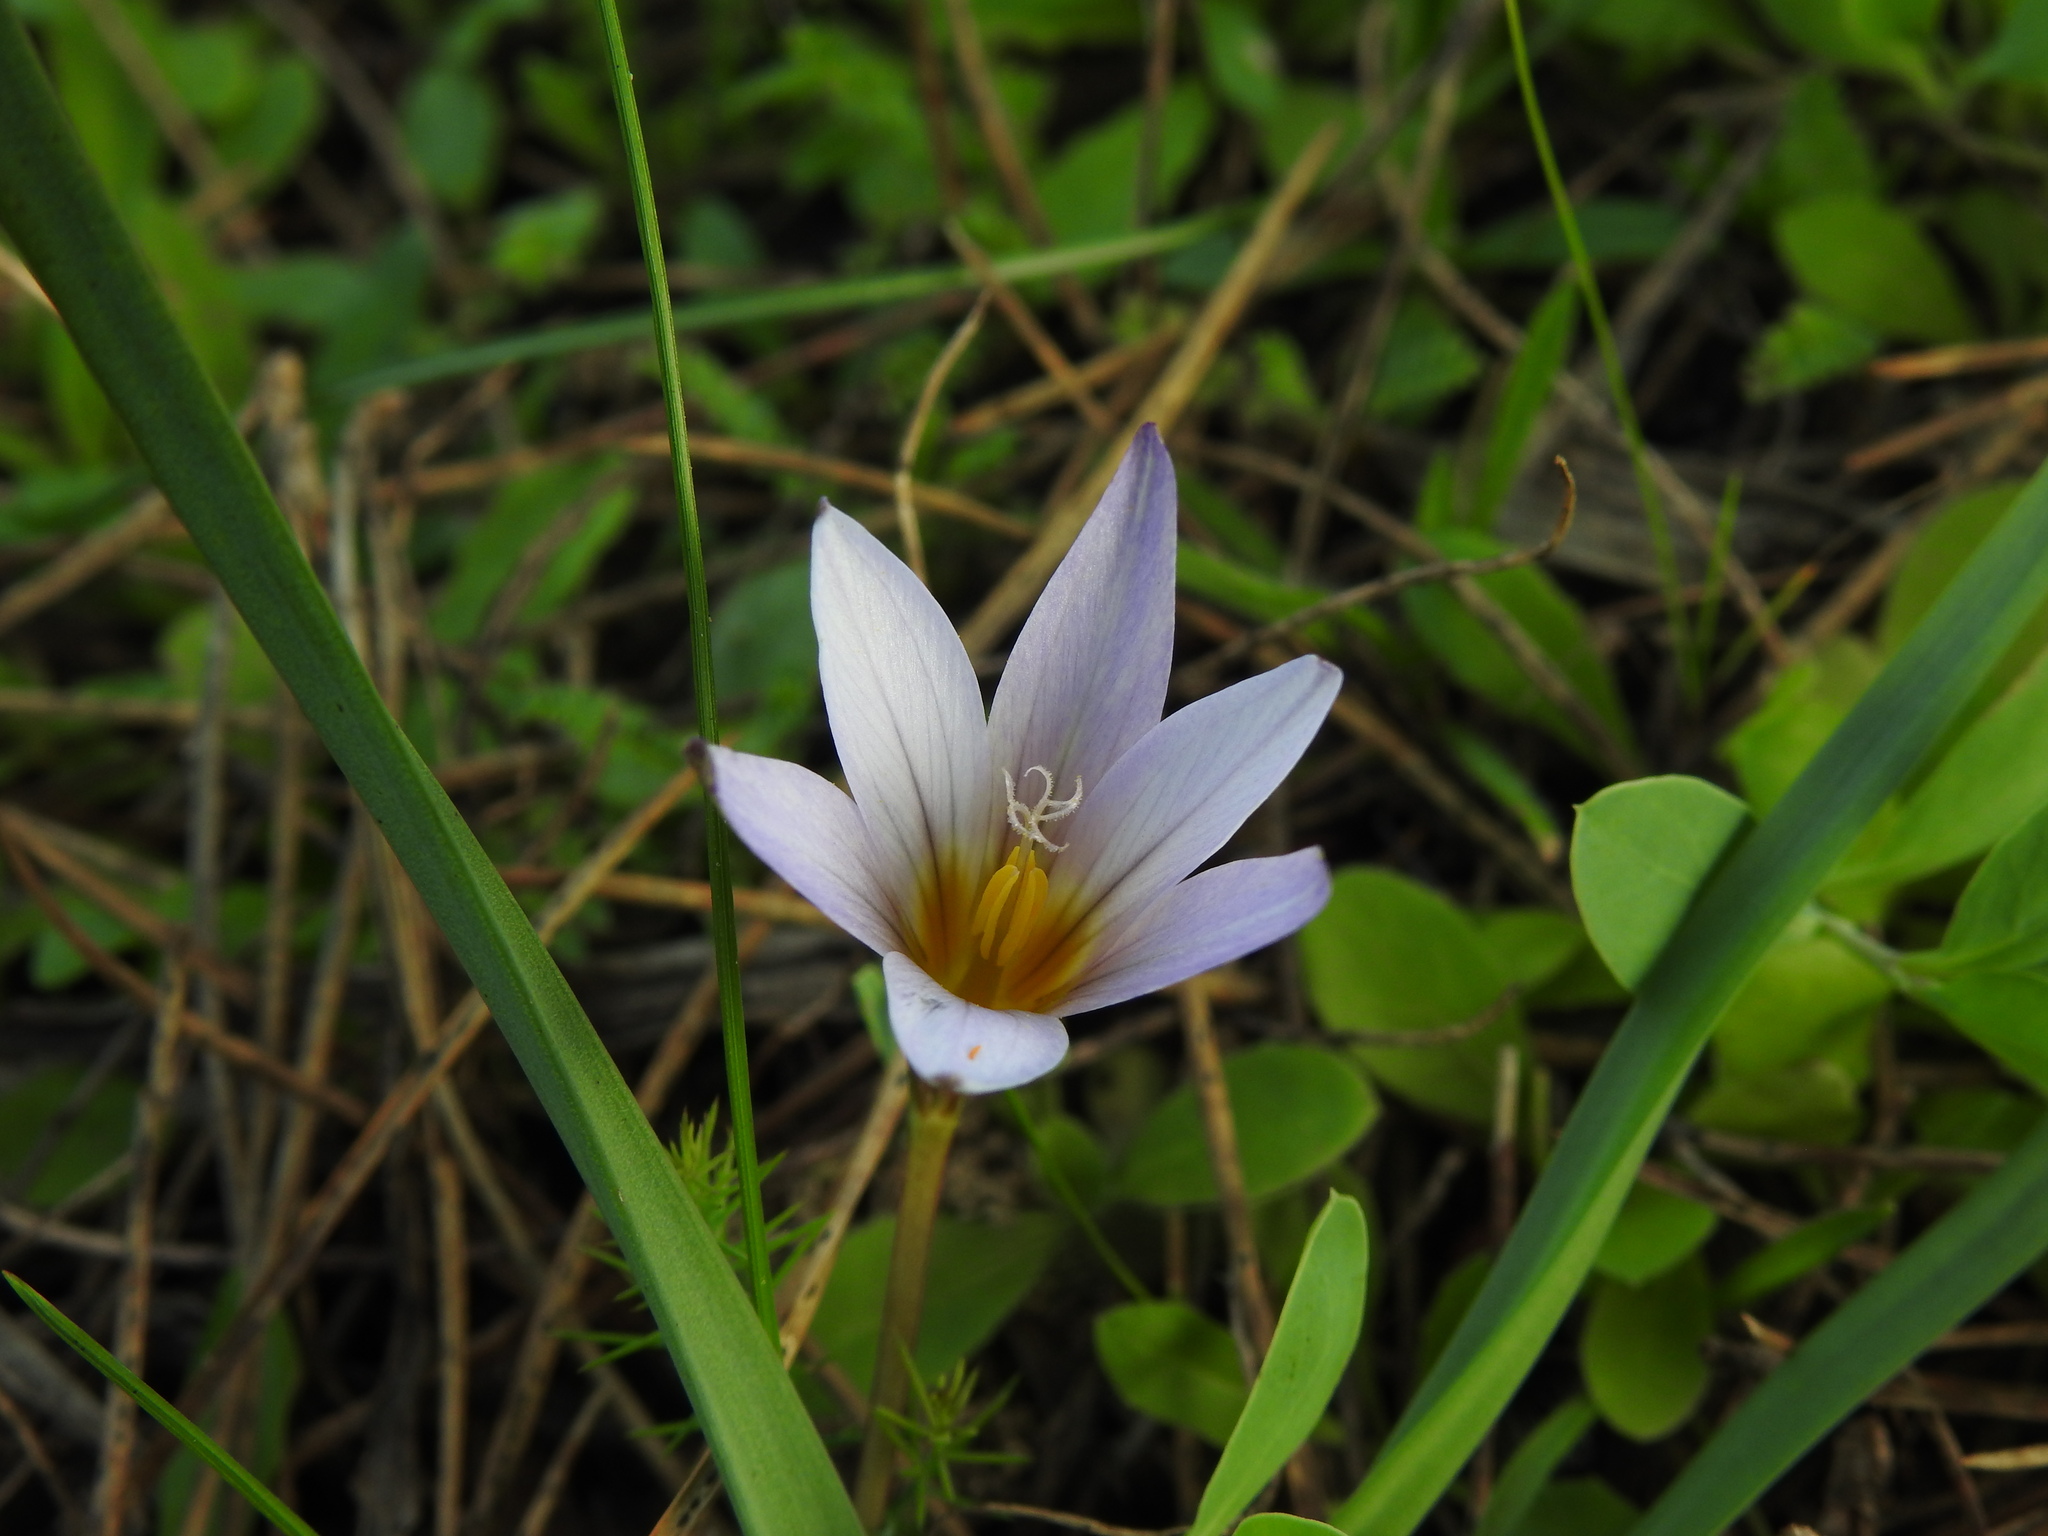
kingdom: Plantae
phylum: Tracheophyta
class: Liliopsida
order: Asparagales
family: Iridaceae
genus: Romulea
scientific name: Romulea bulbocodium
